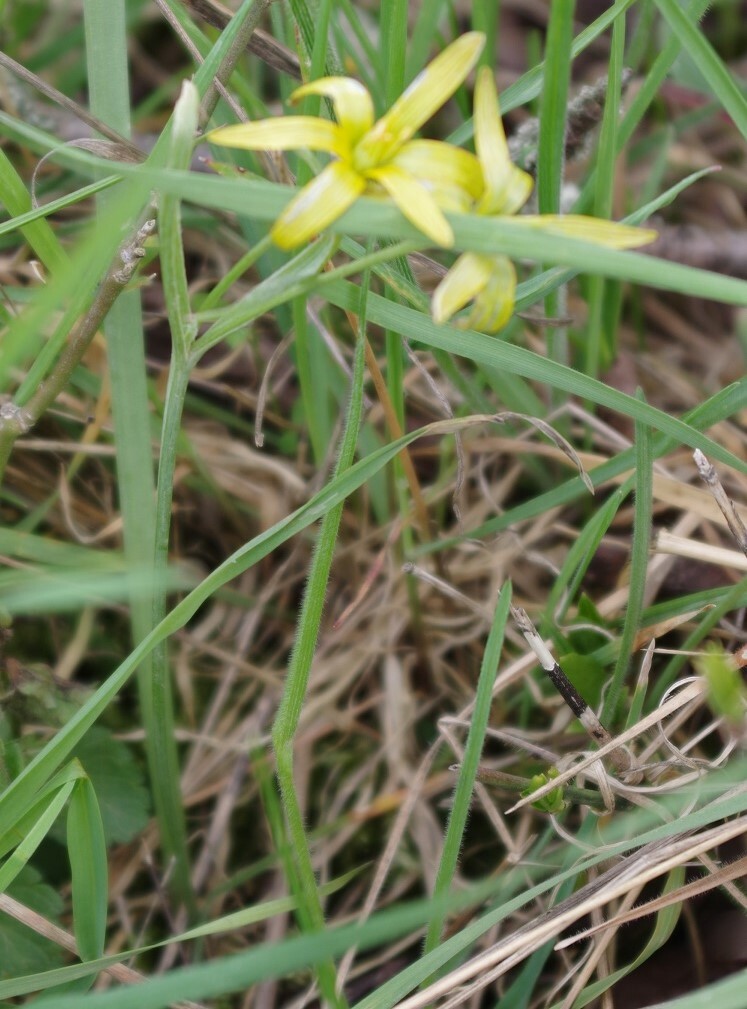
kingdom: Plantae
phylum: Tracheophyta
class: Liliopsida
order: Liliales
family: Liliaceae
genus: Gagea
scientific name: Gagea pratensis
